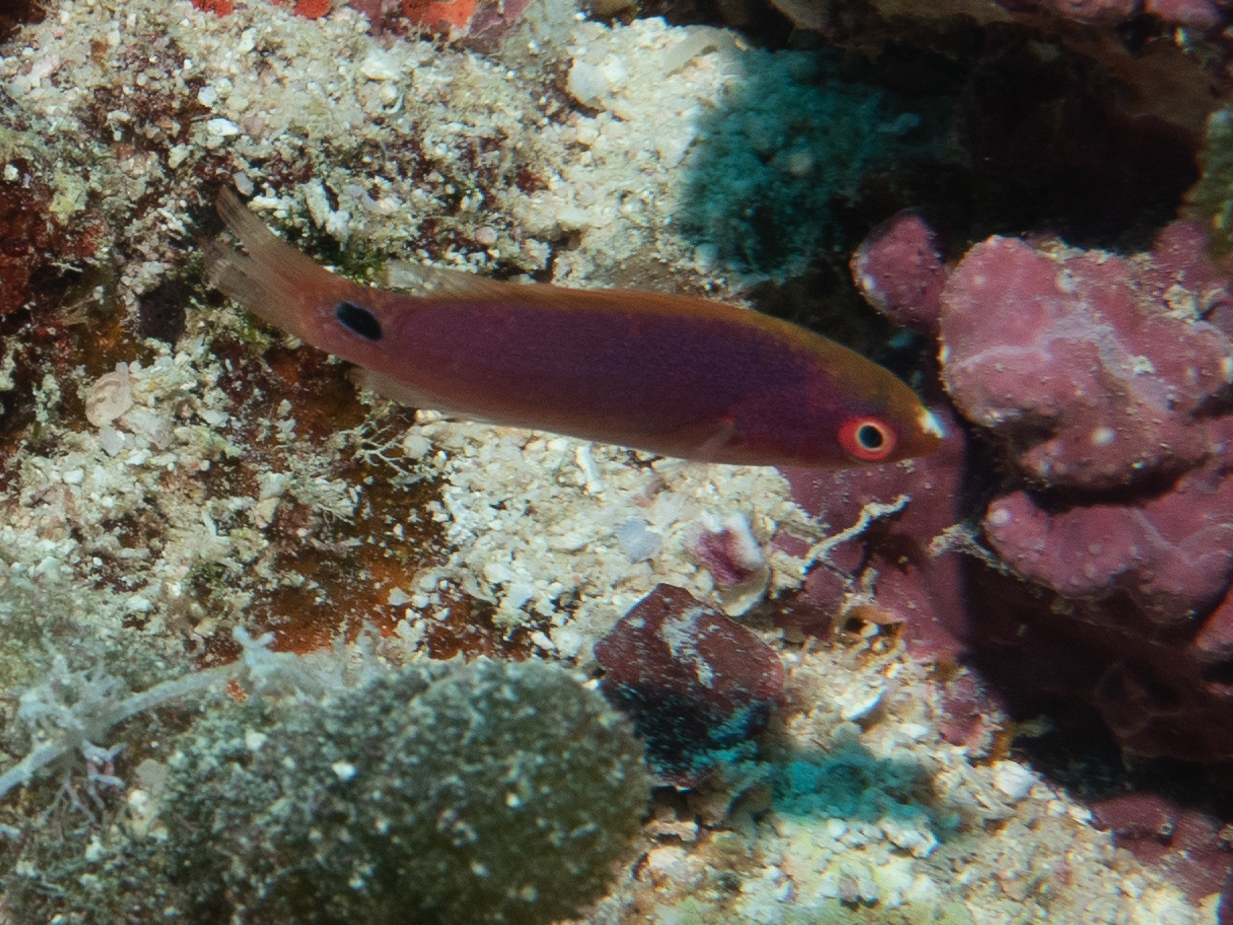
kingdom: Animalia
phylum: Chordata
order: Perciformes
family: Labridae
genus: Cirrhilabrus
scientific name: Cirrhilabrus exquisitus
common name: Exquisite wrasse
